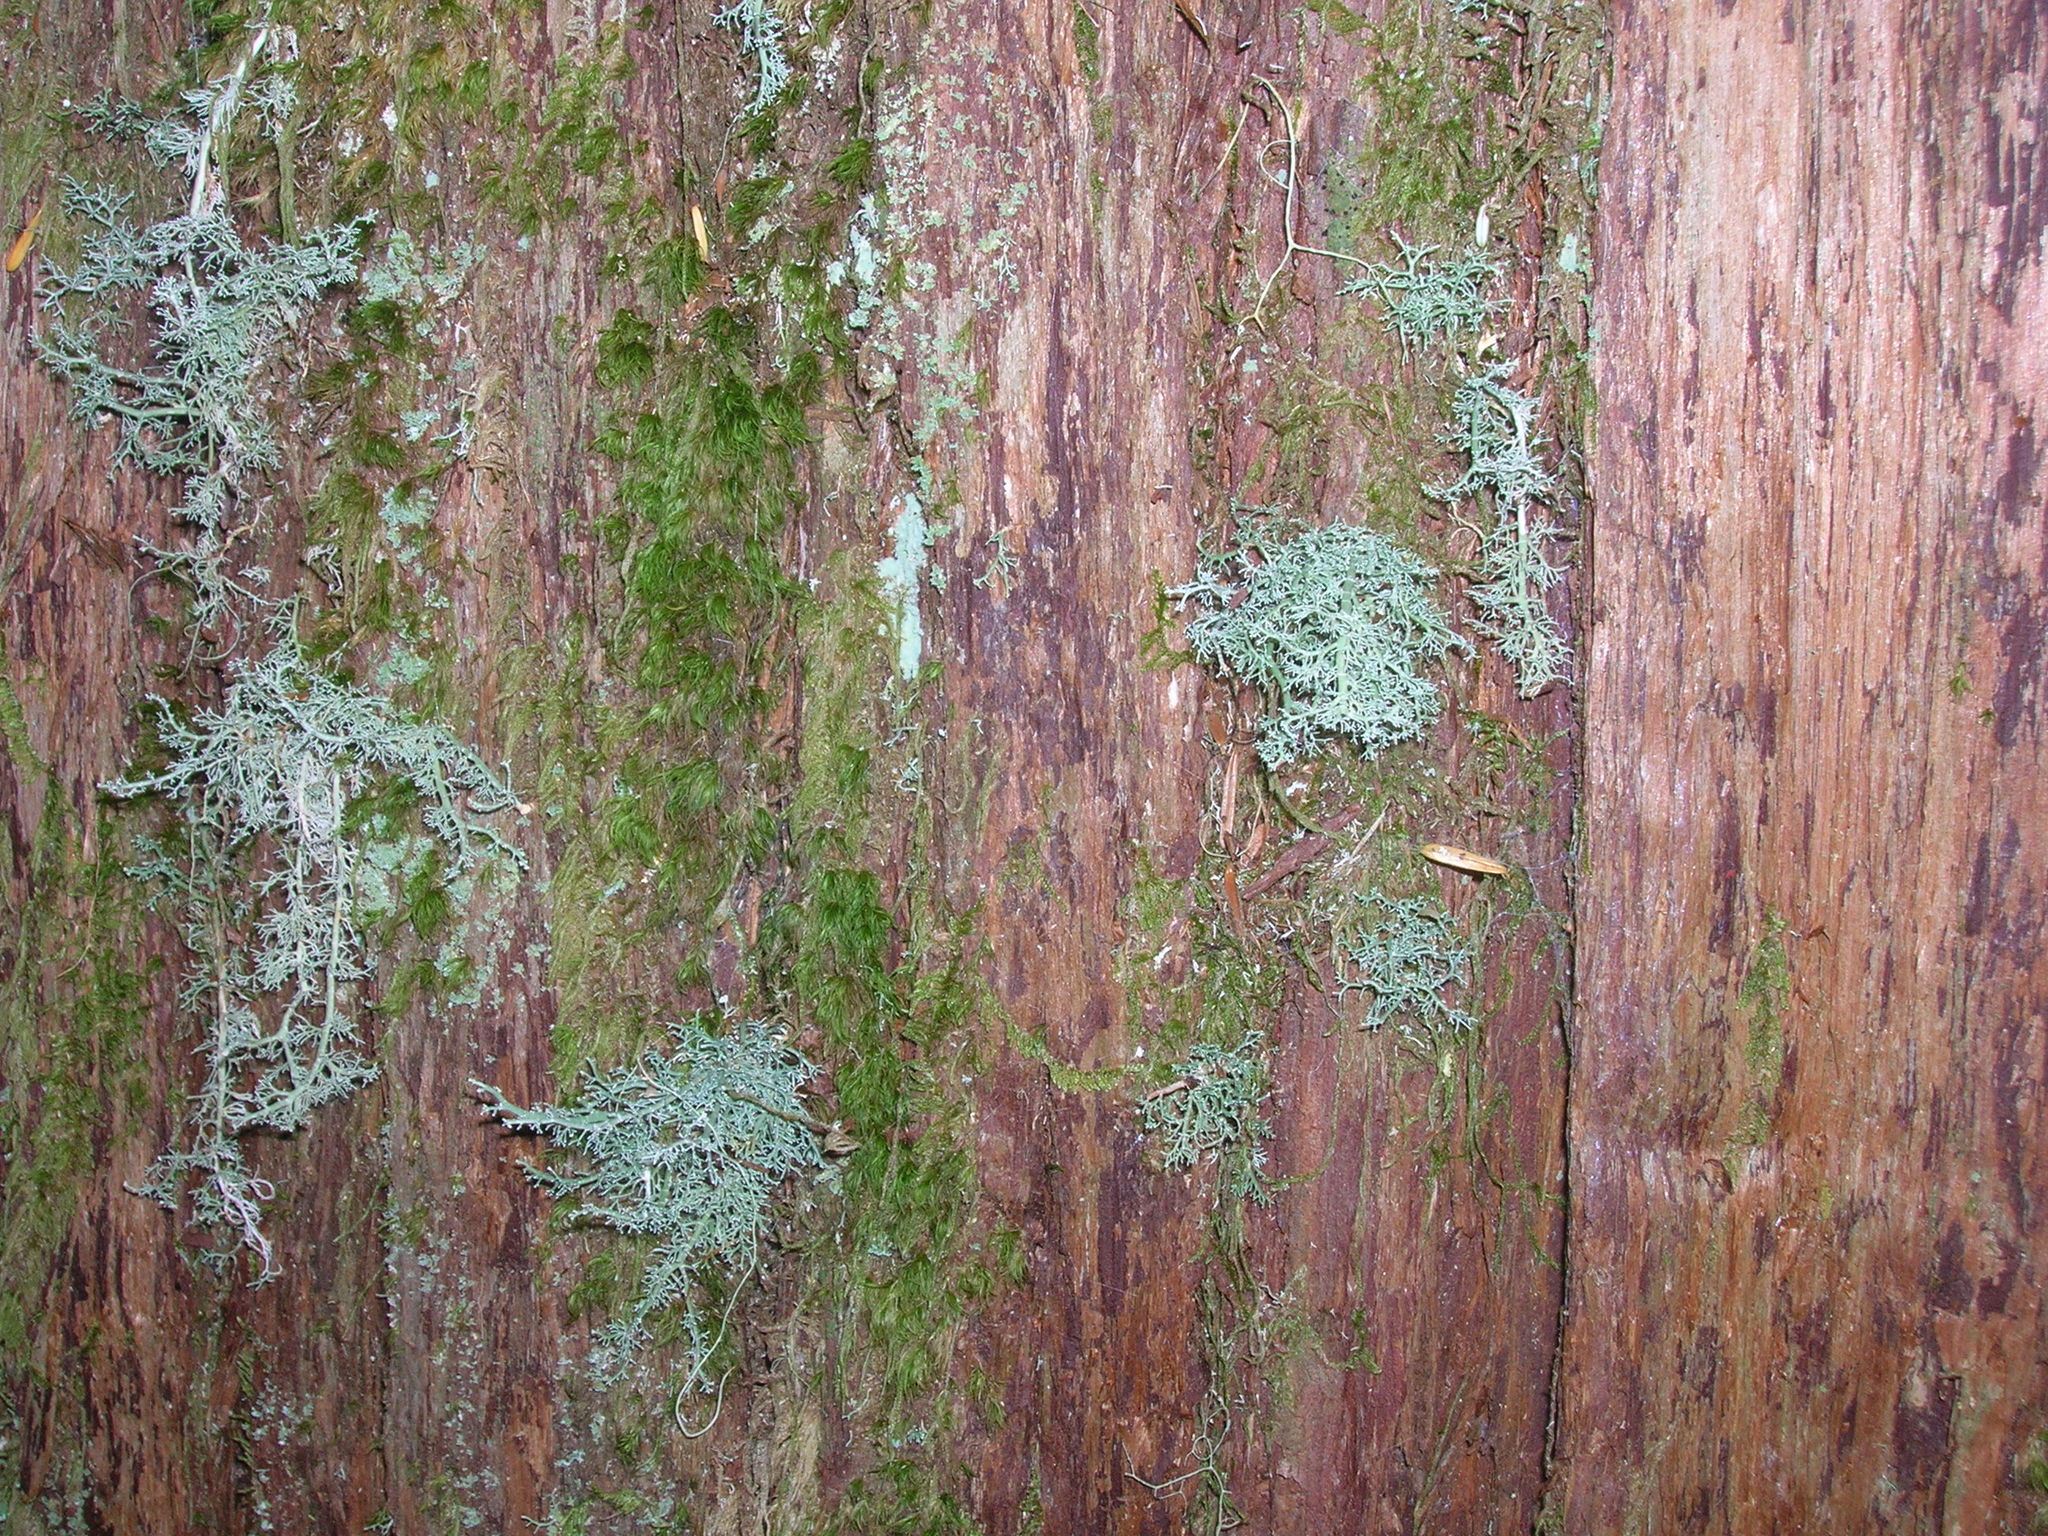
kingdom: Fungi
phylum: Ascomycota
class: Lecanoromycetes
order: Lecanorales
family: Sphaerophoraceae
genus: Sphaerophorus
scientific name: Sphaerophorus globosus
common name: Globe ball lichen
